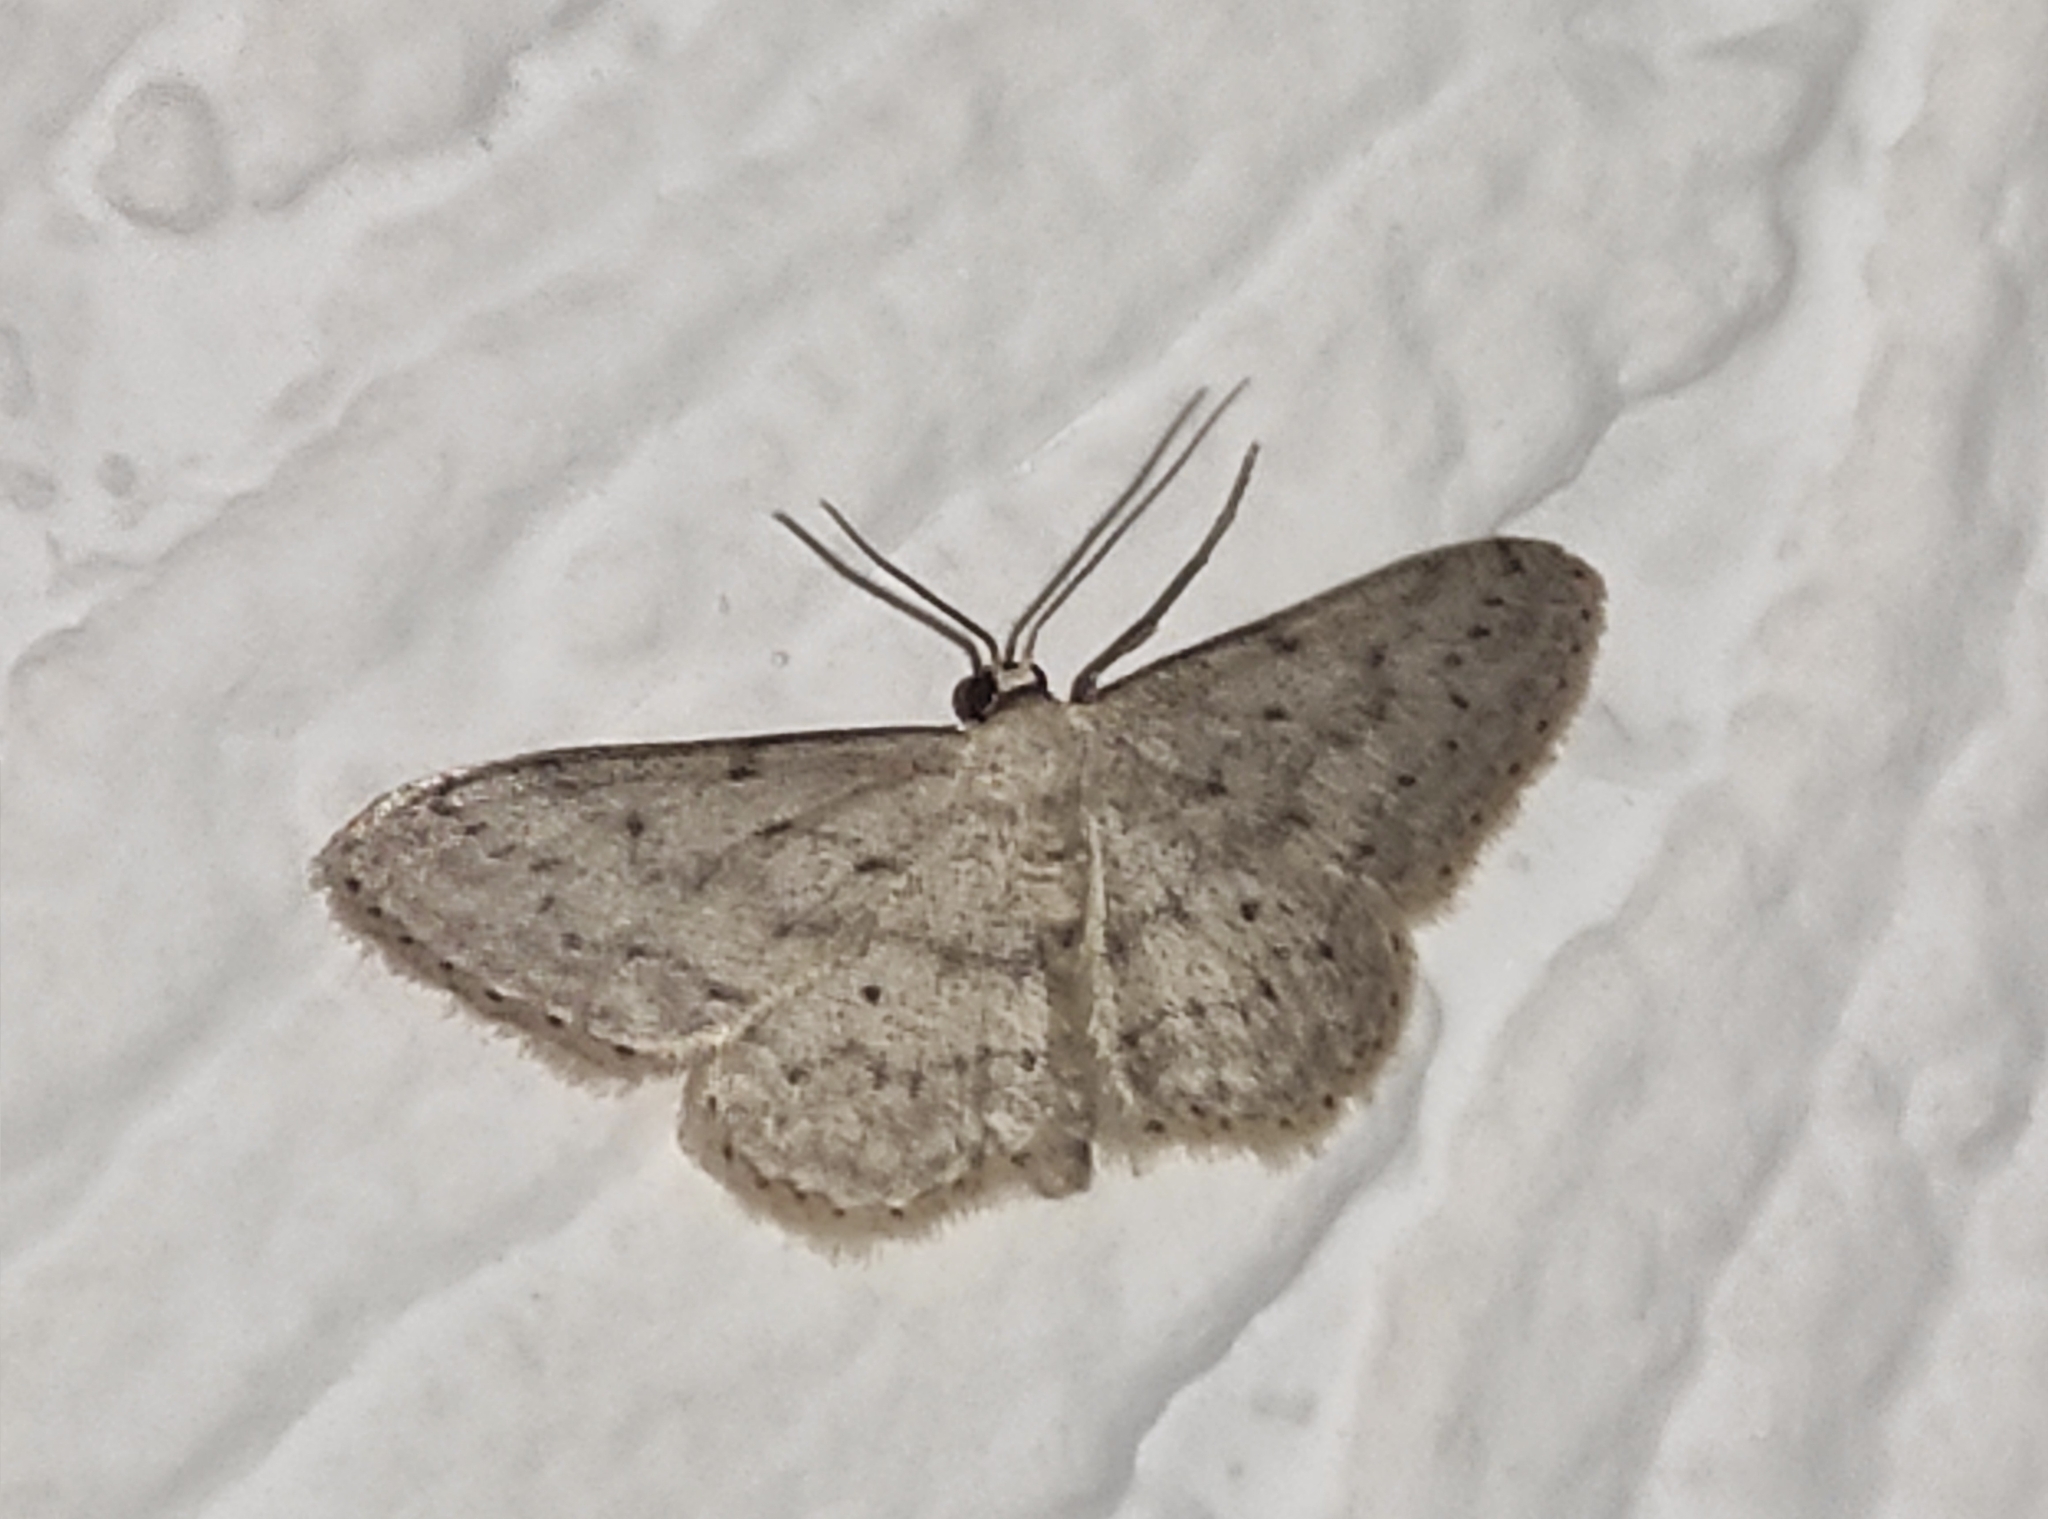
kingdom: Animalia
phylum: Arthropoda
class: Insecta
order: Lepidoptera
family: Geometridae
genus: Idaea
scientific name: Idaea seriata
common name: Small dusty wave
